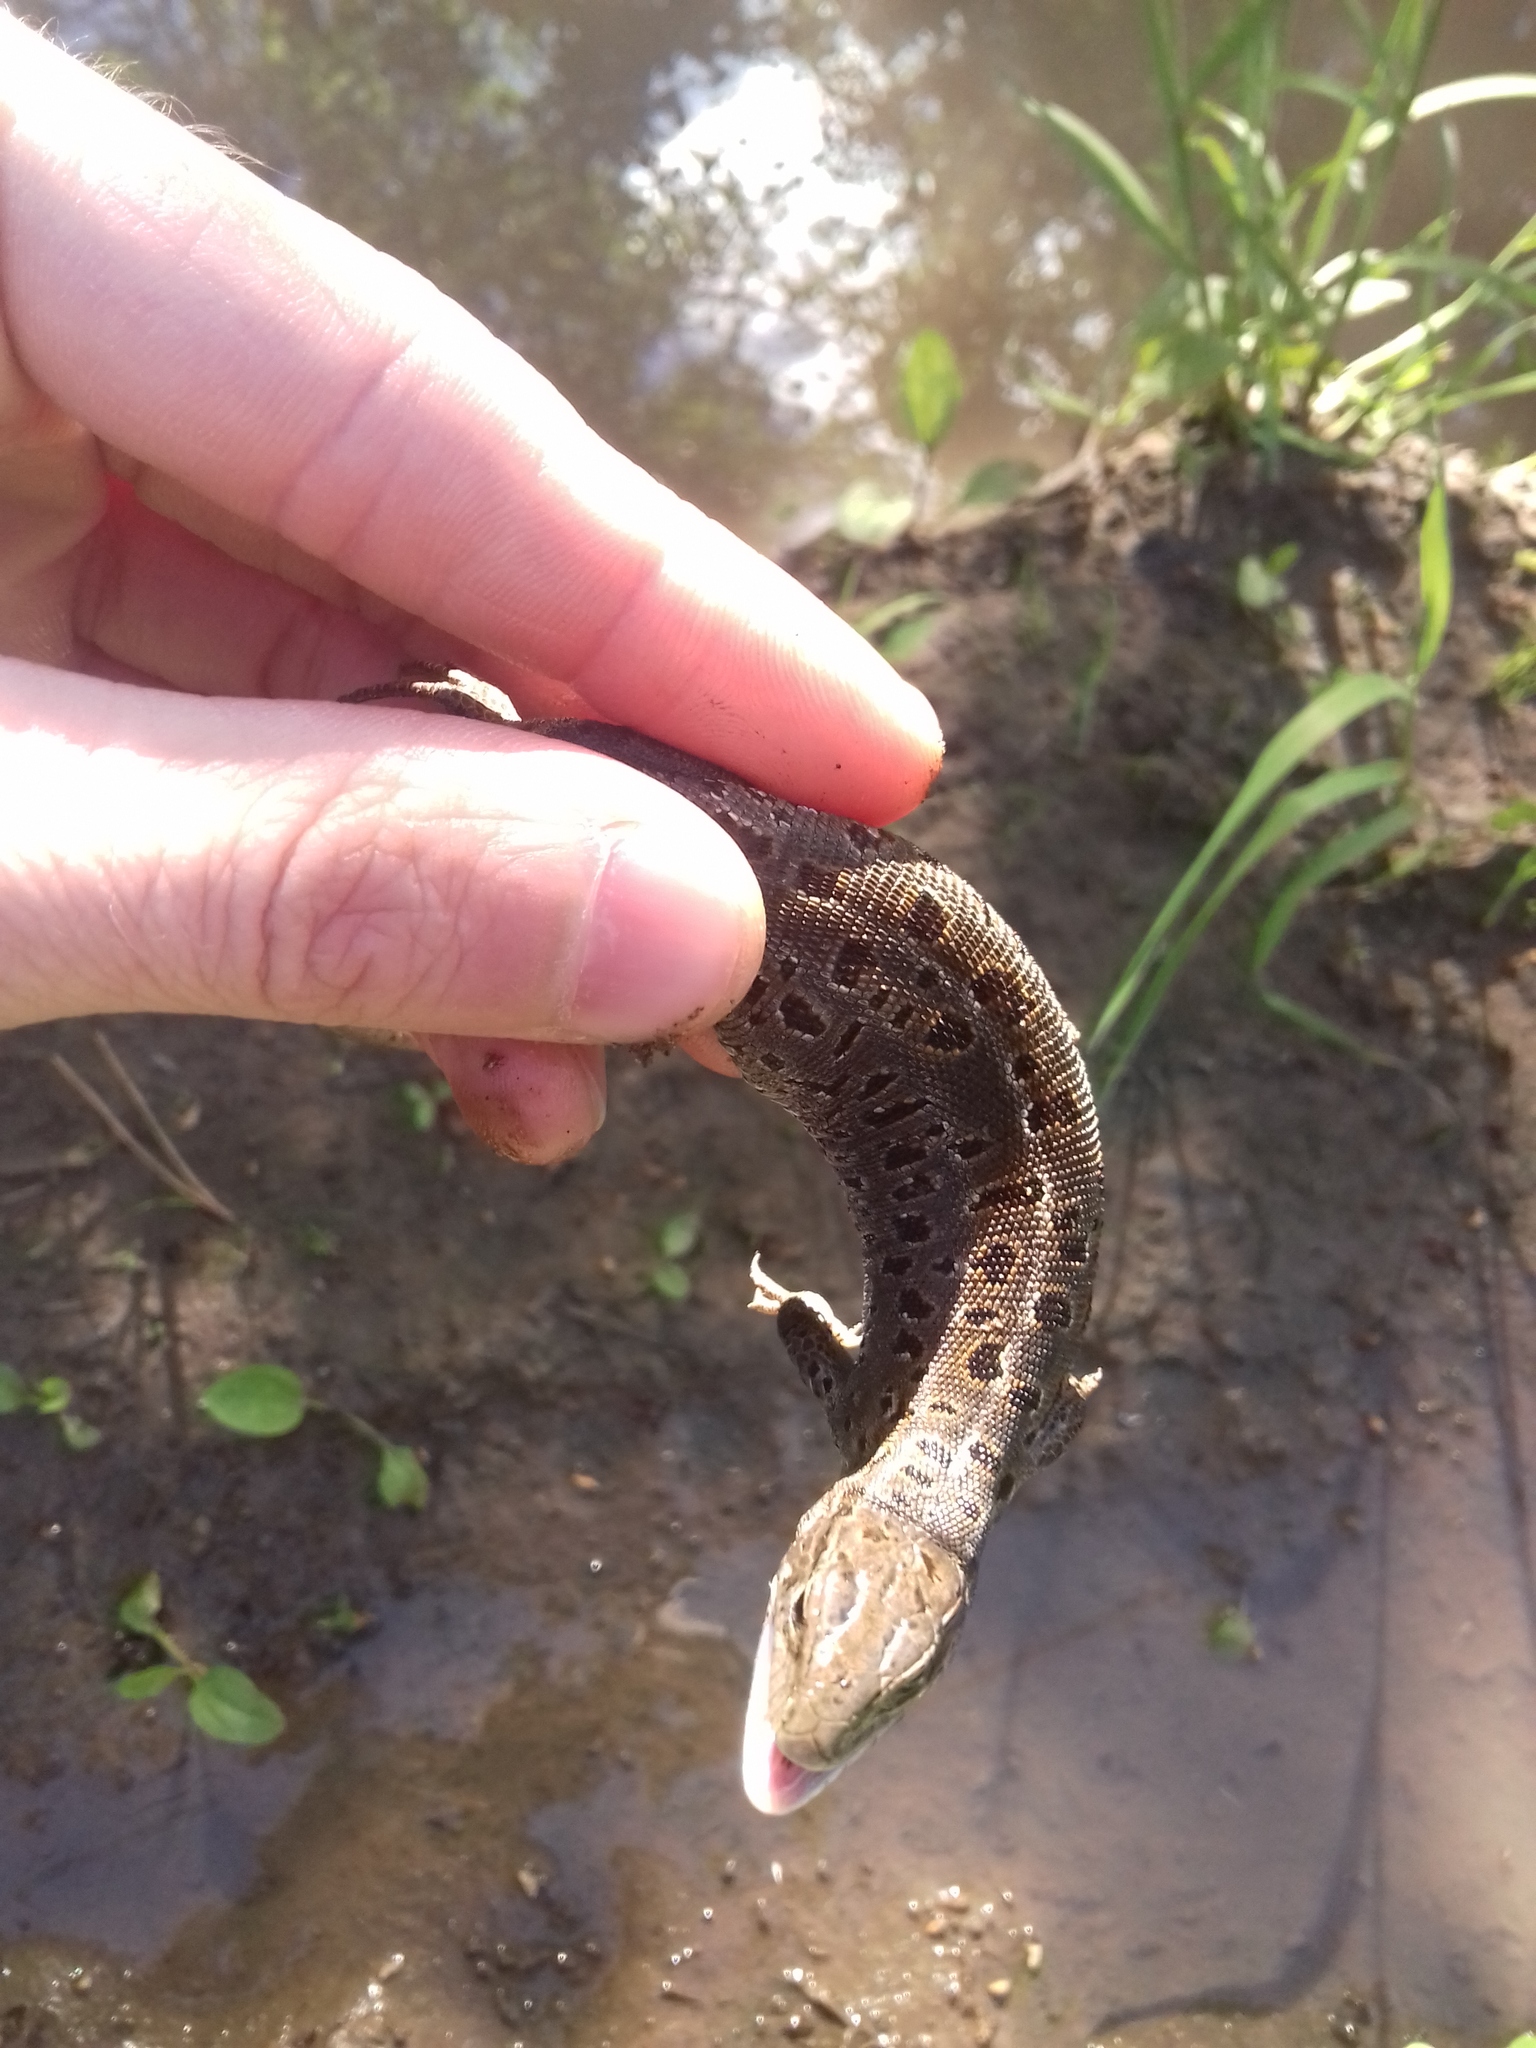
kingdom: Animalia
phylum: Chordata
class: Squamata
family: Lacertidae
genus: Lacerta
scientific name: Lacerta agilis
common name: Sand lizard
